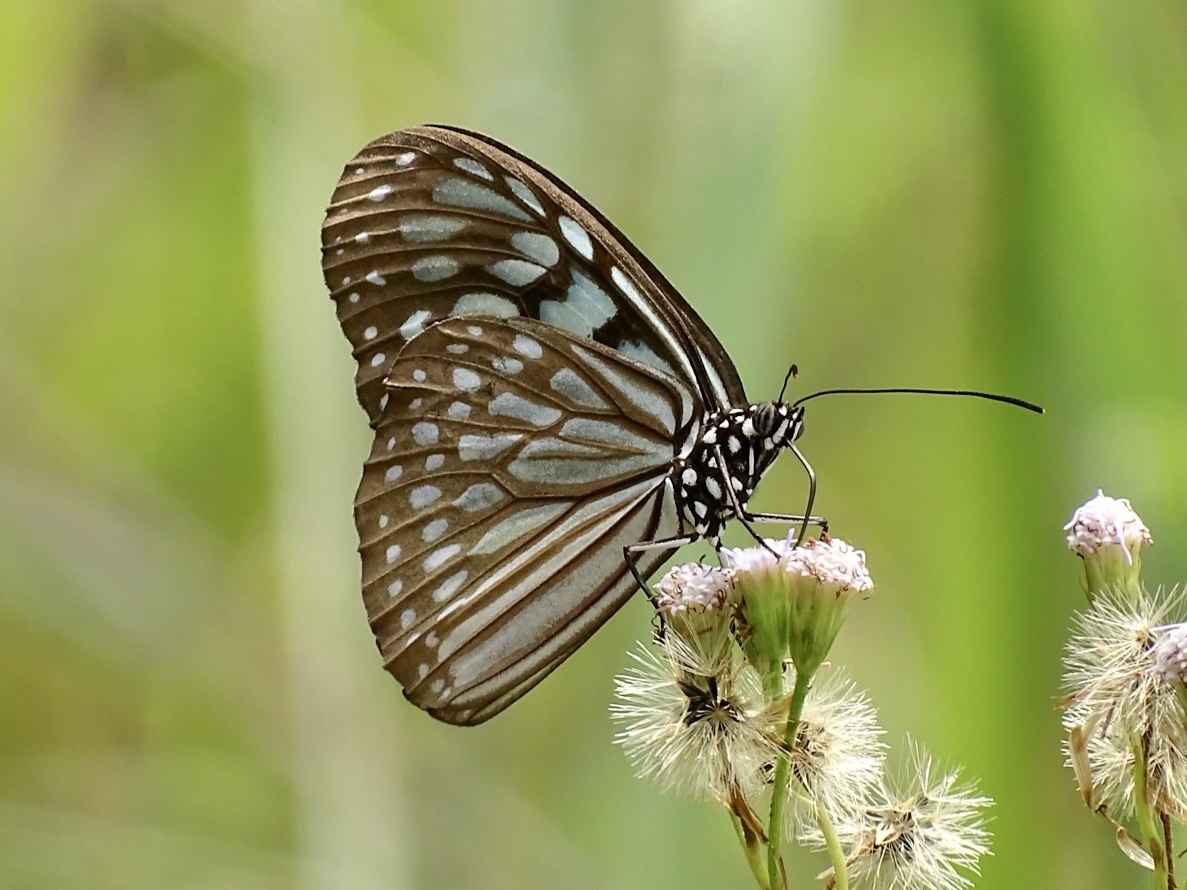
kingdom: Animalia
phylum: Arthropoda
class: Insecta
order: Lepidoptera
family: Nymphalidae
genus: Ideopsis
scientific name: Ideopsis similis
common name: Ceylon blue glassy tiger
